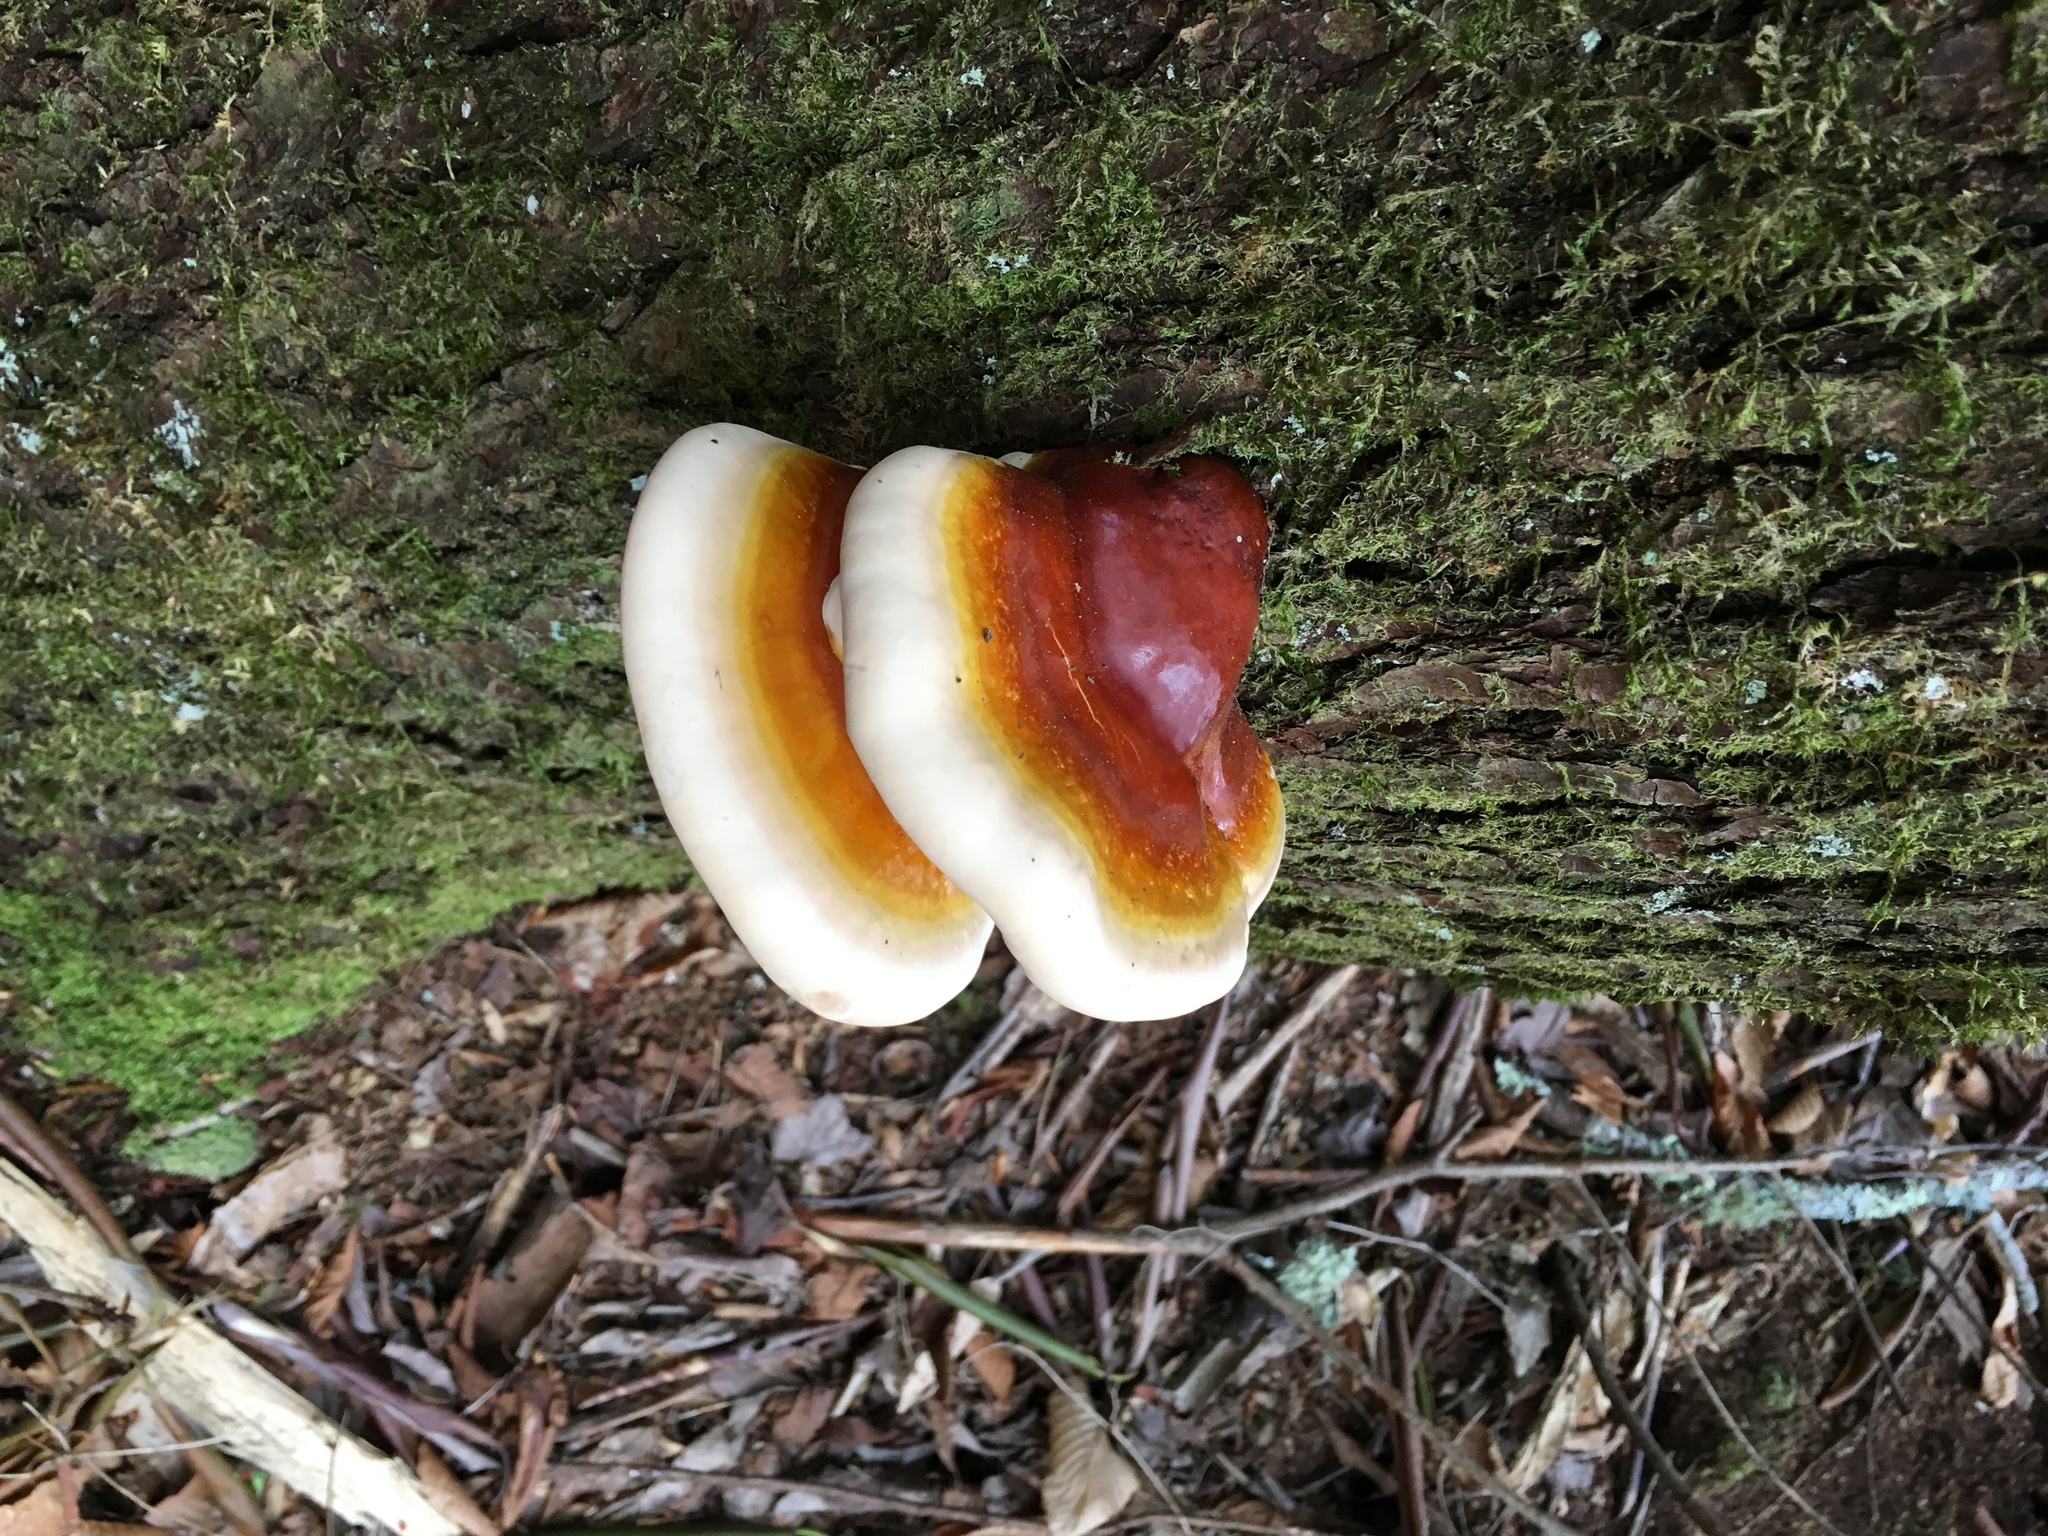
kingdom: Fungi
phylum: Basidiomycota
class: Agaricomycetes
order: Polyporales
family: Polyporaceae
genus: Ganoderma
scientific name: Ganoderma tsugae
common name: Hemlock varnish shelf
